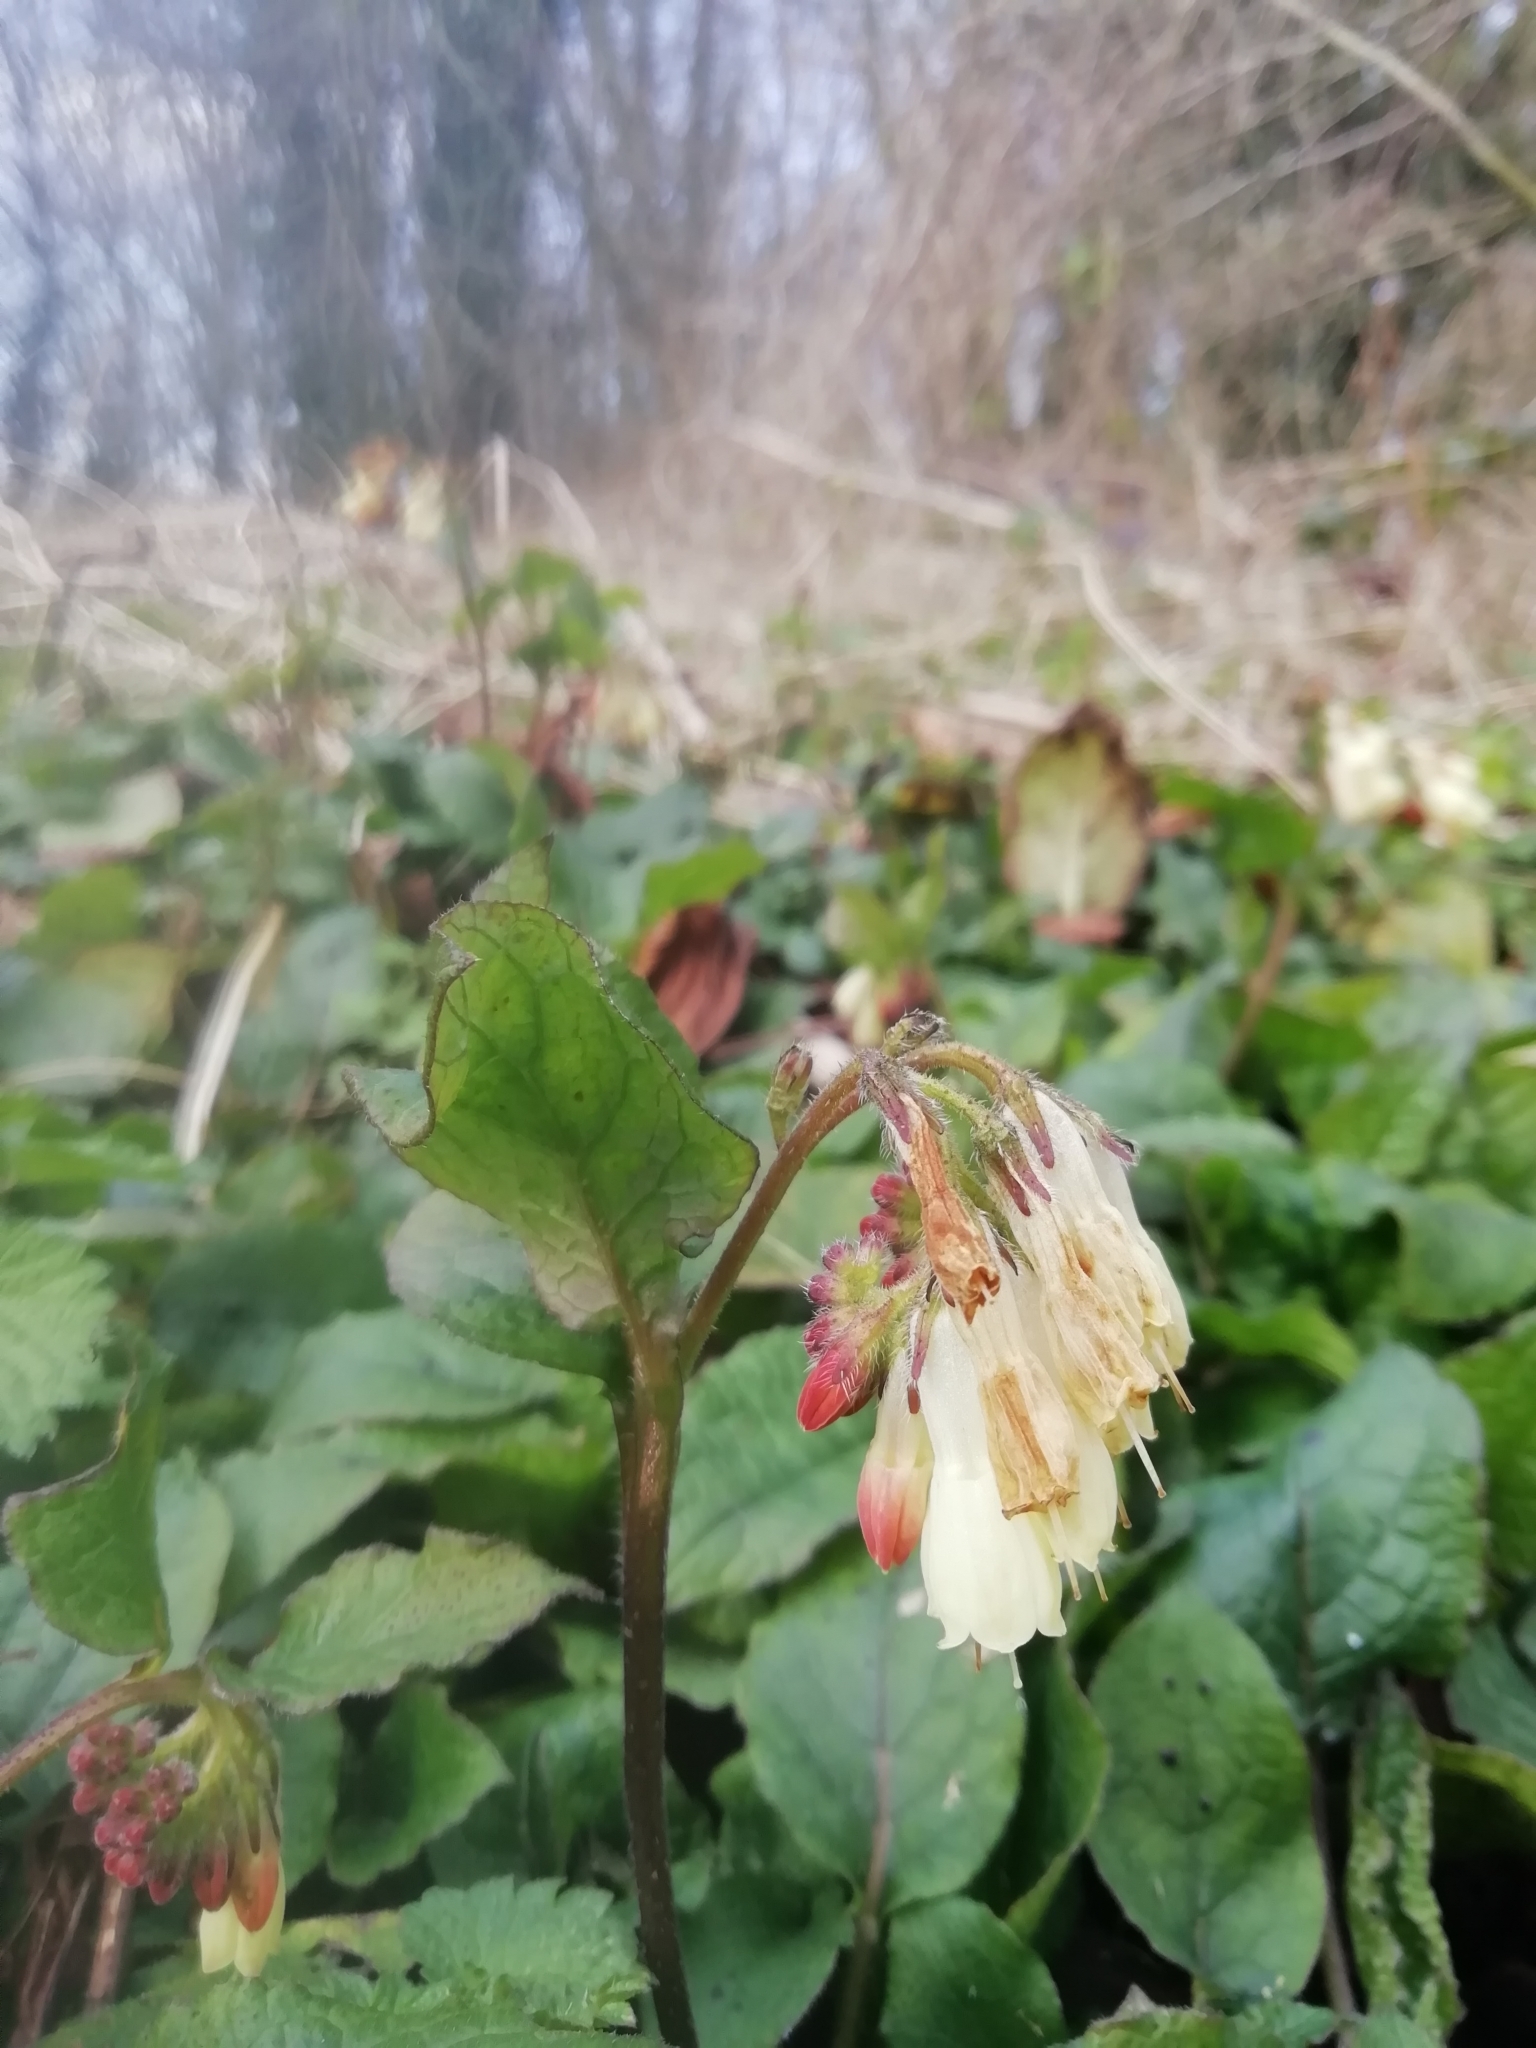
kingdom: Plantae
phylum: Tracheophyta
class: Magnoliopsida
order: Boraginales
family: Boraginaceae
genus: Symphytum
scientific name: Symphytum grandiflorum
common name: Creeping comfrey
